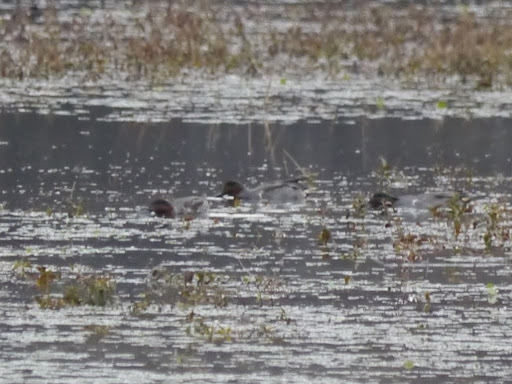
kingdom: Animalia
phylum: Chordata
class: Aves
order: Anseriformes
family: Anatidae
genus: Anas
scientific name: Anas crecca
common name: Eurasian teal
